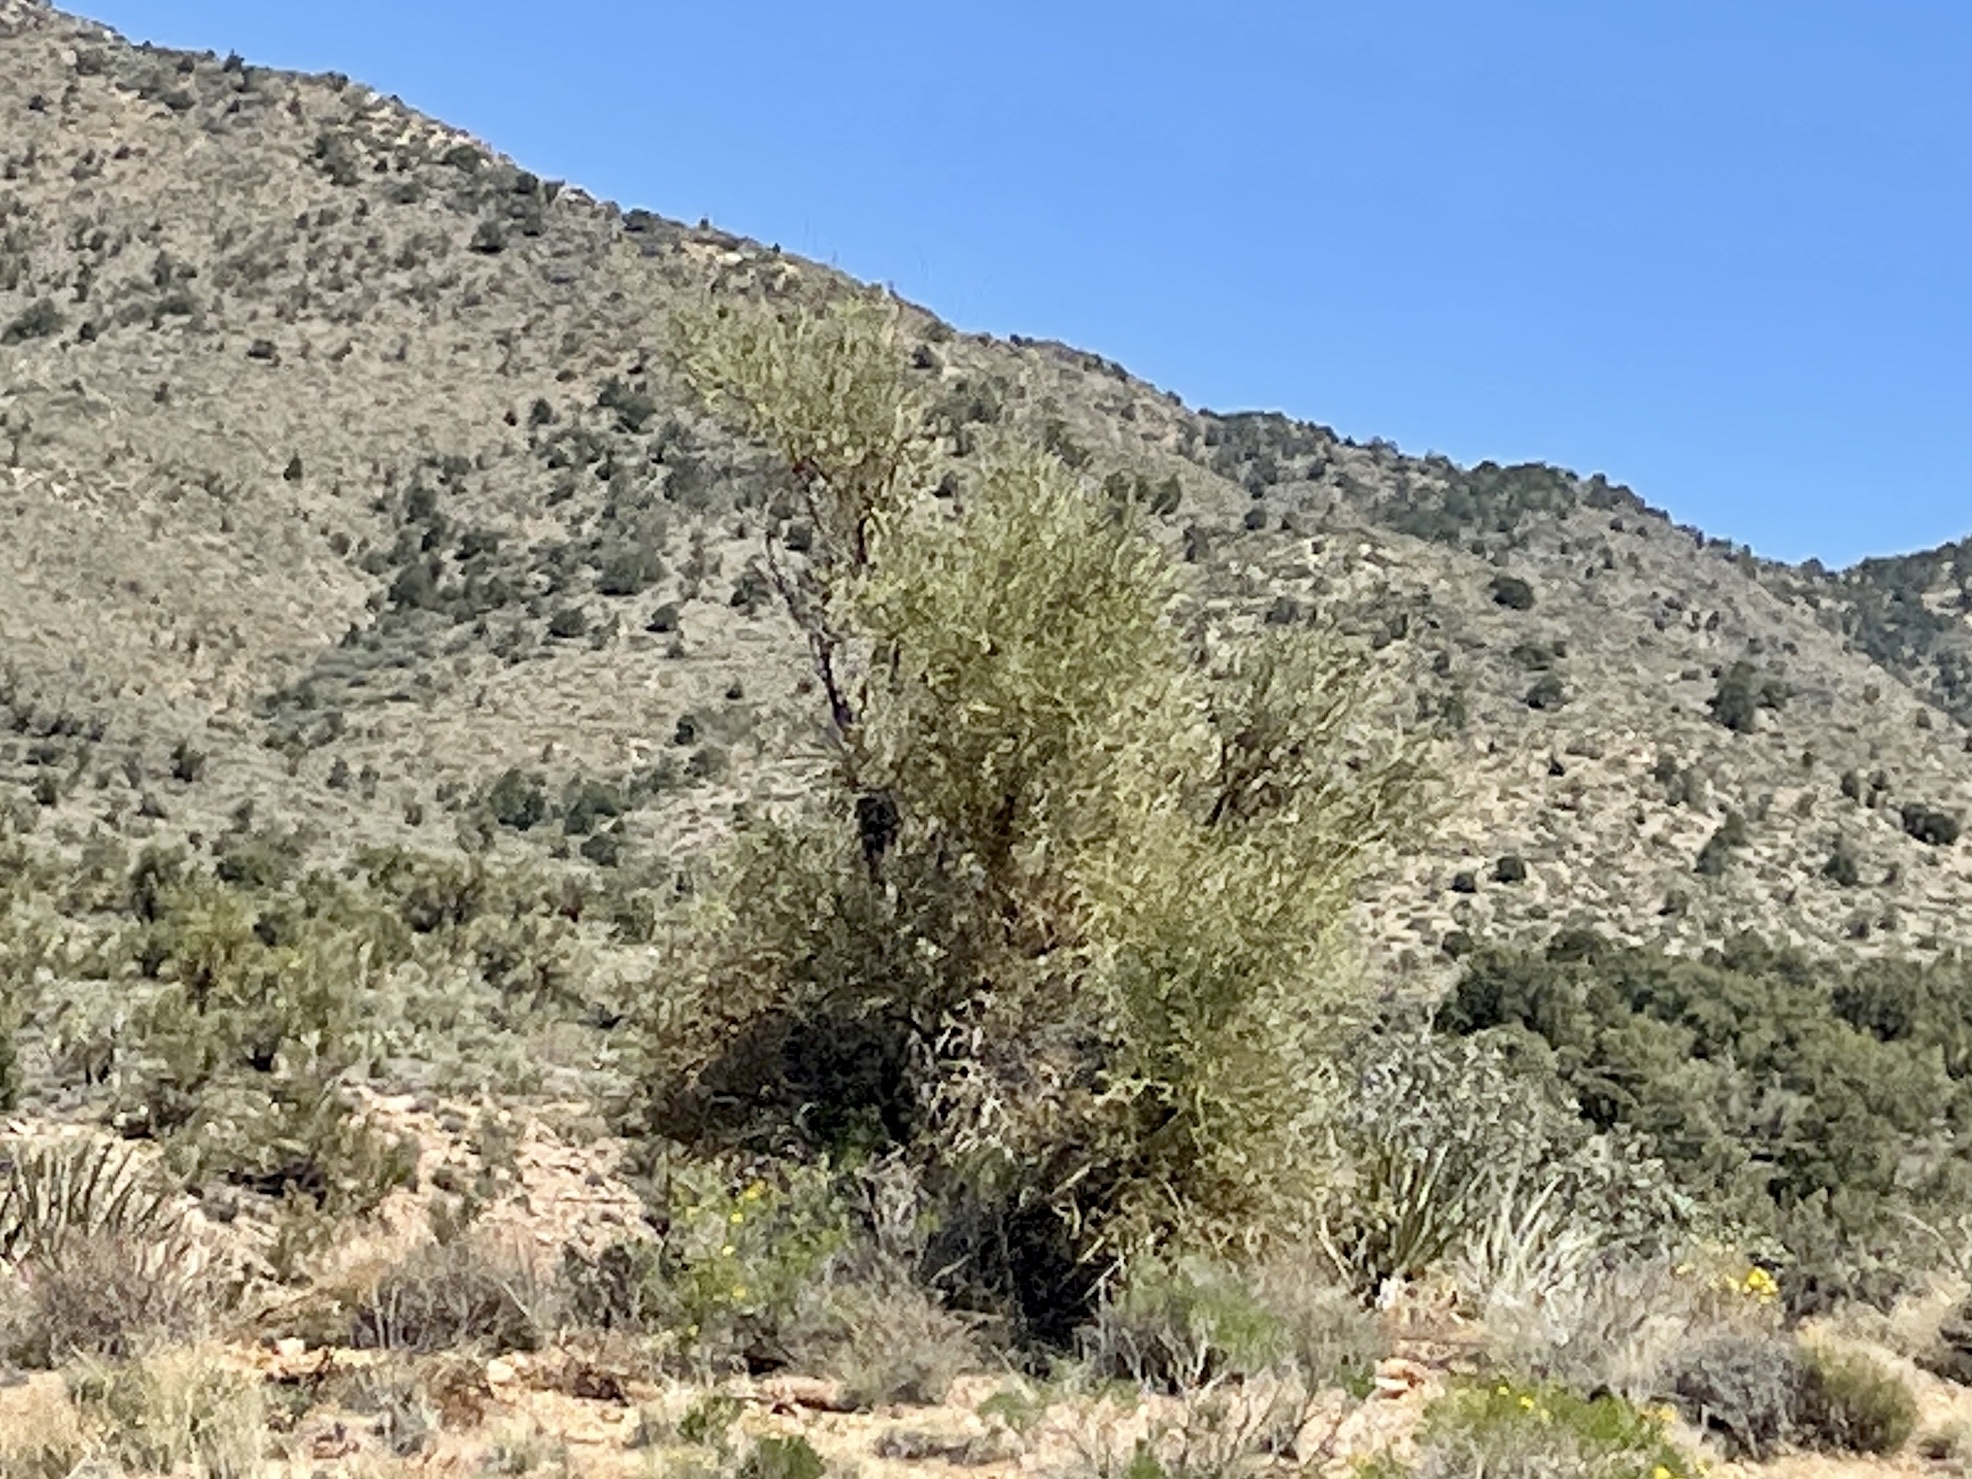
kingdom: Plantae
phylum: Tracheophyta
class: Magnoliopsida
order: Celastrales
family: Celastraceae
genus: Canotia
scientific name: Canotia holacantha
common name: Crucifixion thorns
